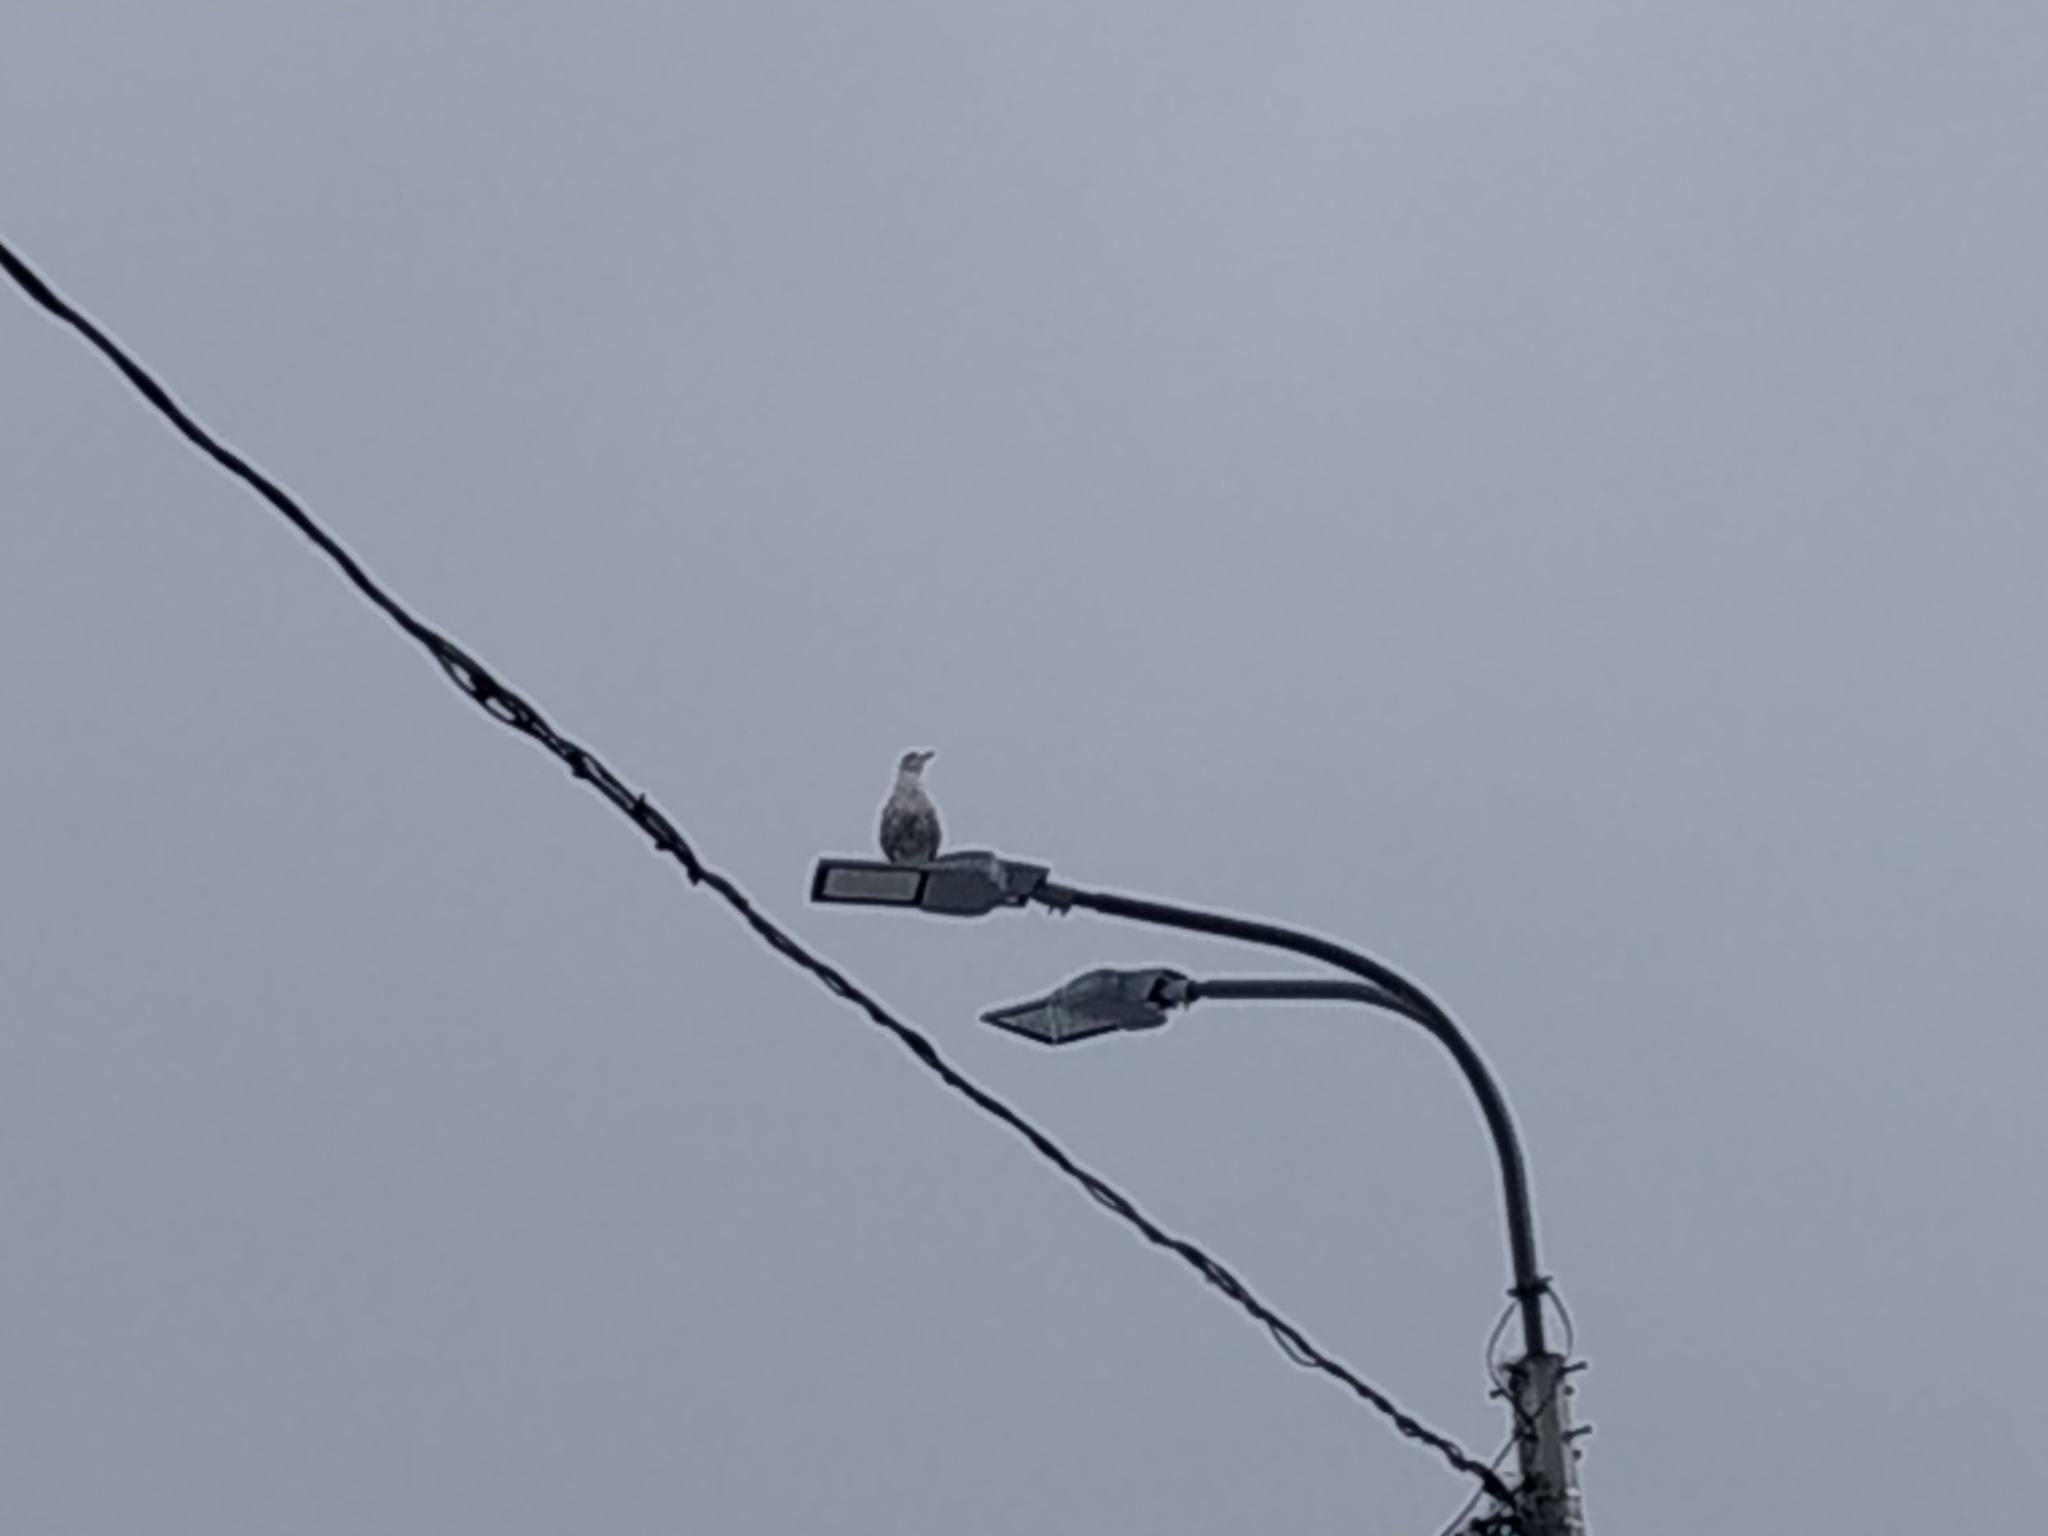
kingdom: Animalia
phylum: Chordata
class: Aves
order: Charadriiformes
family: Laridae
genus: Larus
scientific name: Larus argentatus
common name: Herring gull
